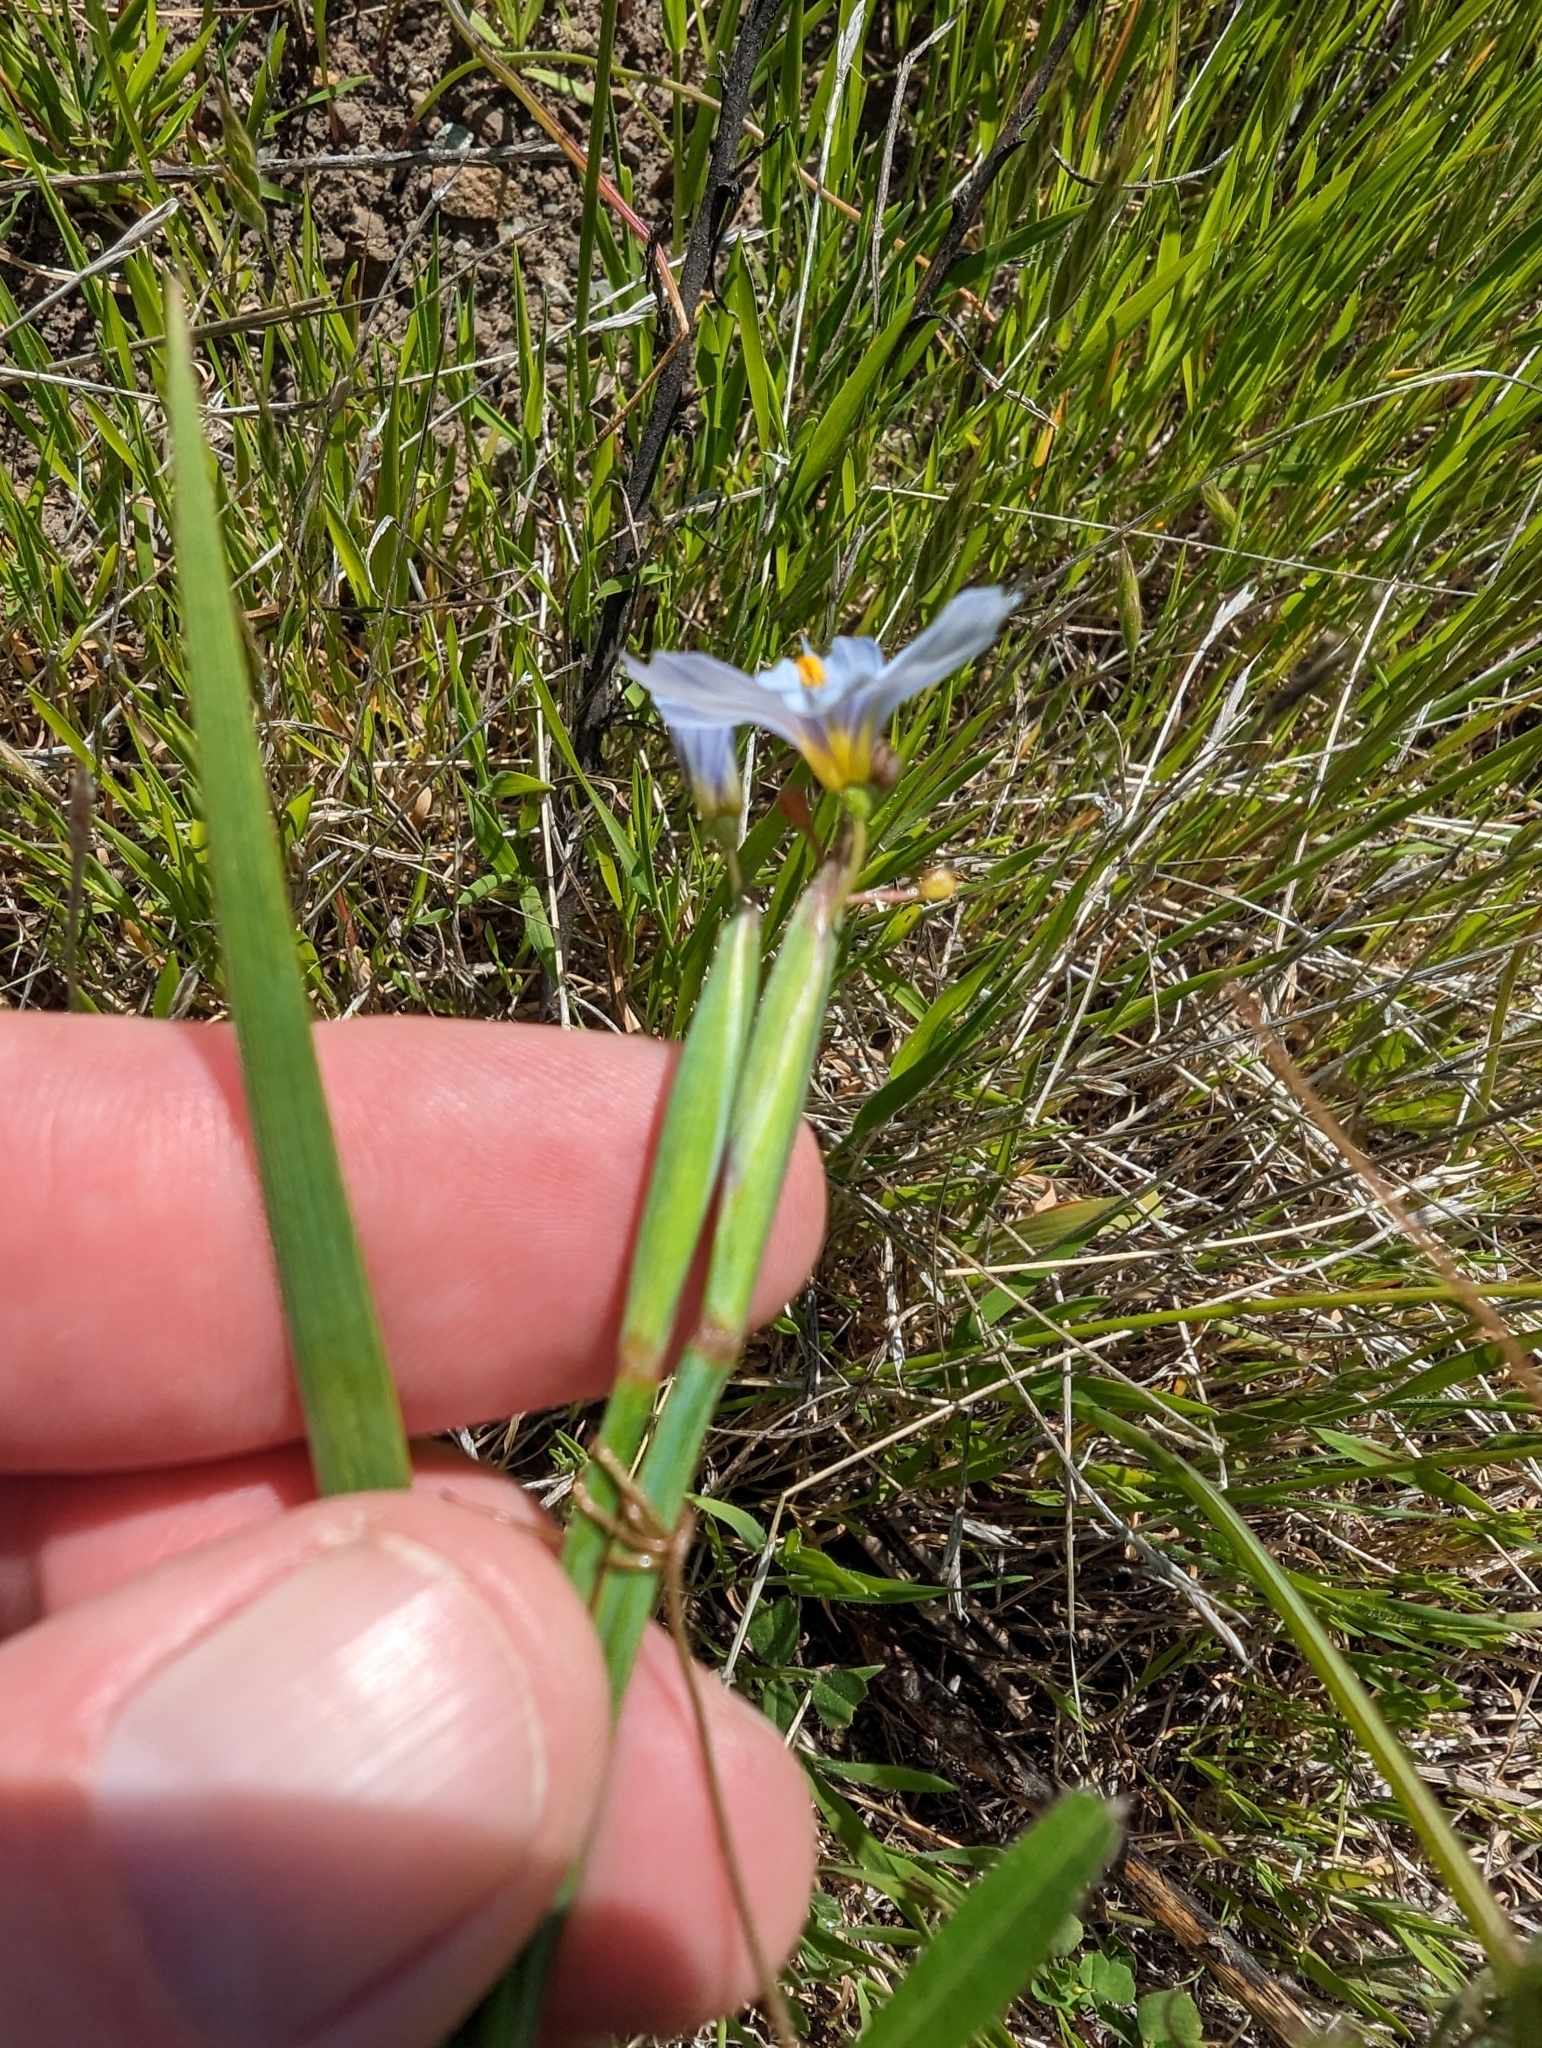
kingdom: Plantae
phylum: Tracheophyta
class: Liliopsida
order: Asparagales
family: Iridaceae
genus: Sisyrinchium
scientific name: Sisyrinchium bellum
